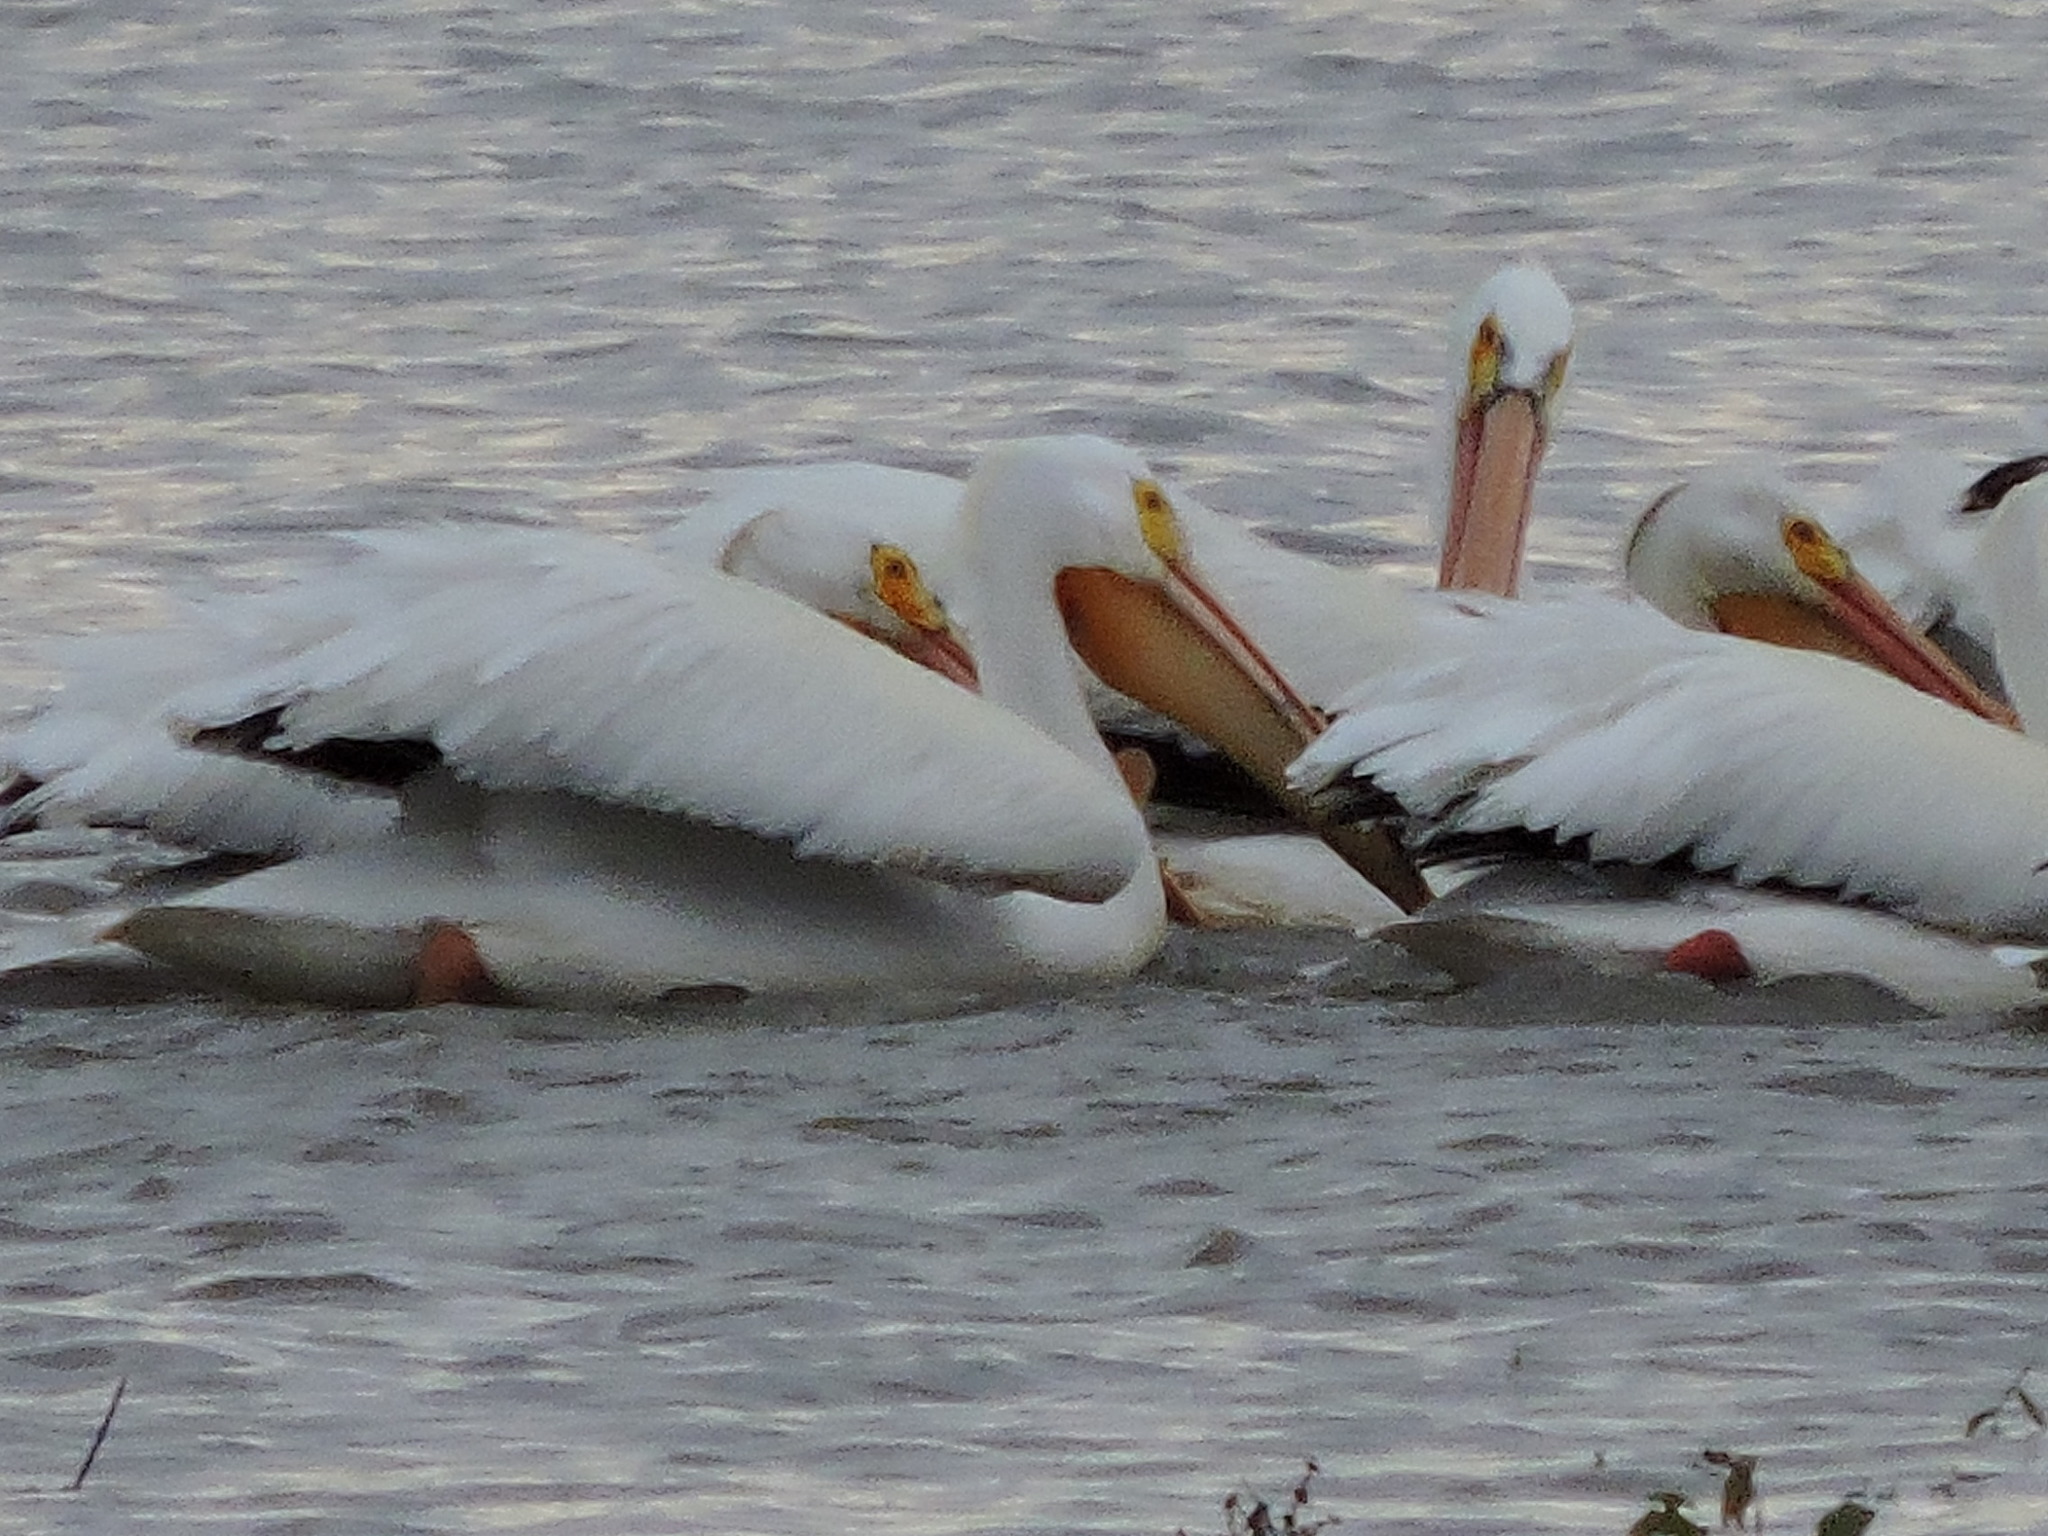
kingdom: Animalia
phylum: Chordata
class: Aves
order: Pelecaniformes
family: Pelecanidae
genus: Pelecanus
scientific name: Pelecanus erythrorhynchos
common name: American white pelican
